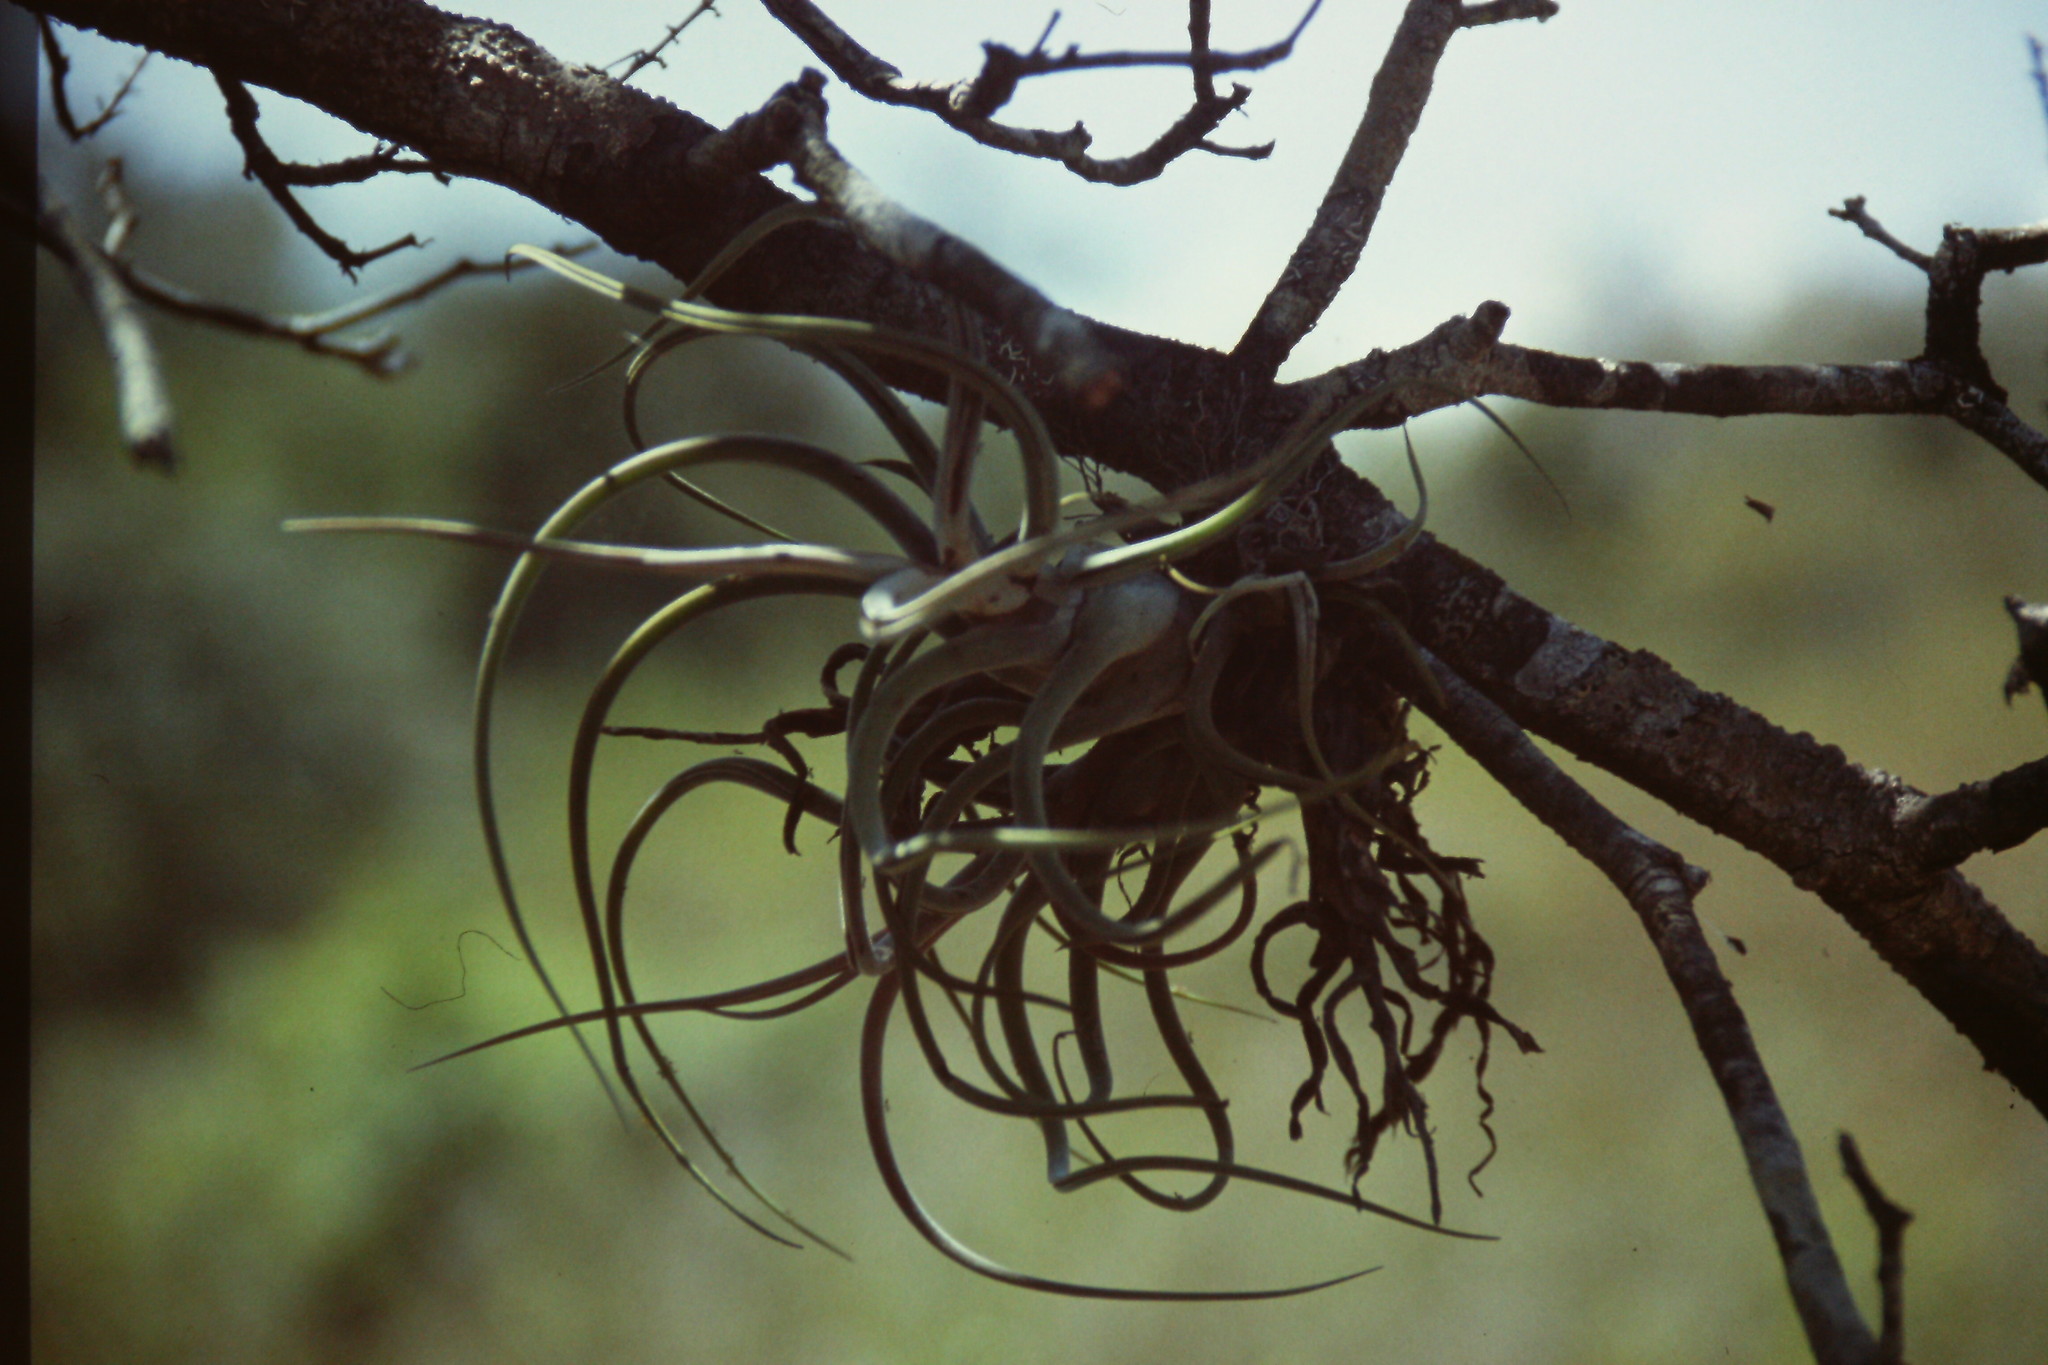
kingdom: Plantae
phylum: Tracheophyta
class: Liliopsida
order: Poales
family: Bromeliaceae
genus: Tillandsia
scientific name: Tillandsia caput-medusae
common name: Octopus plant
